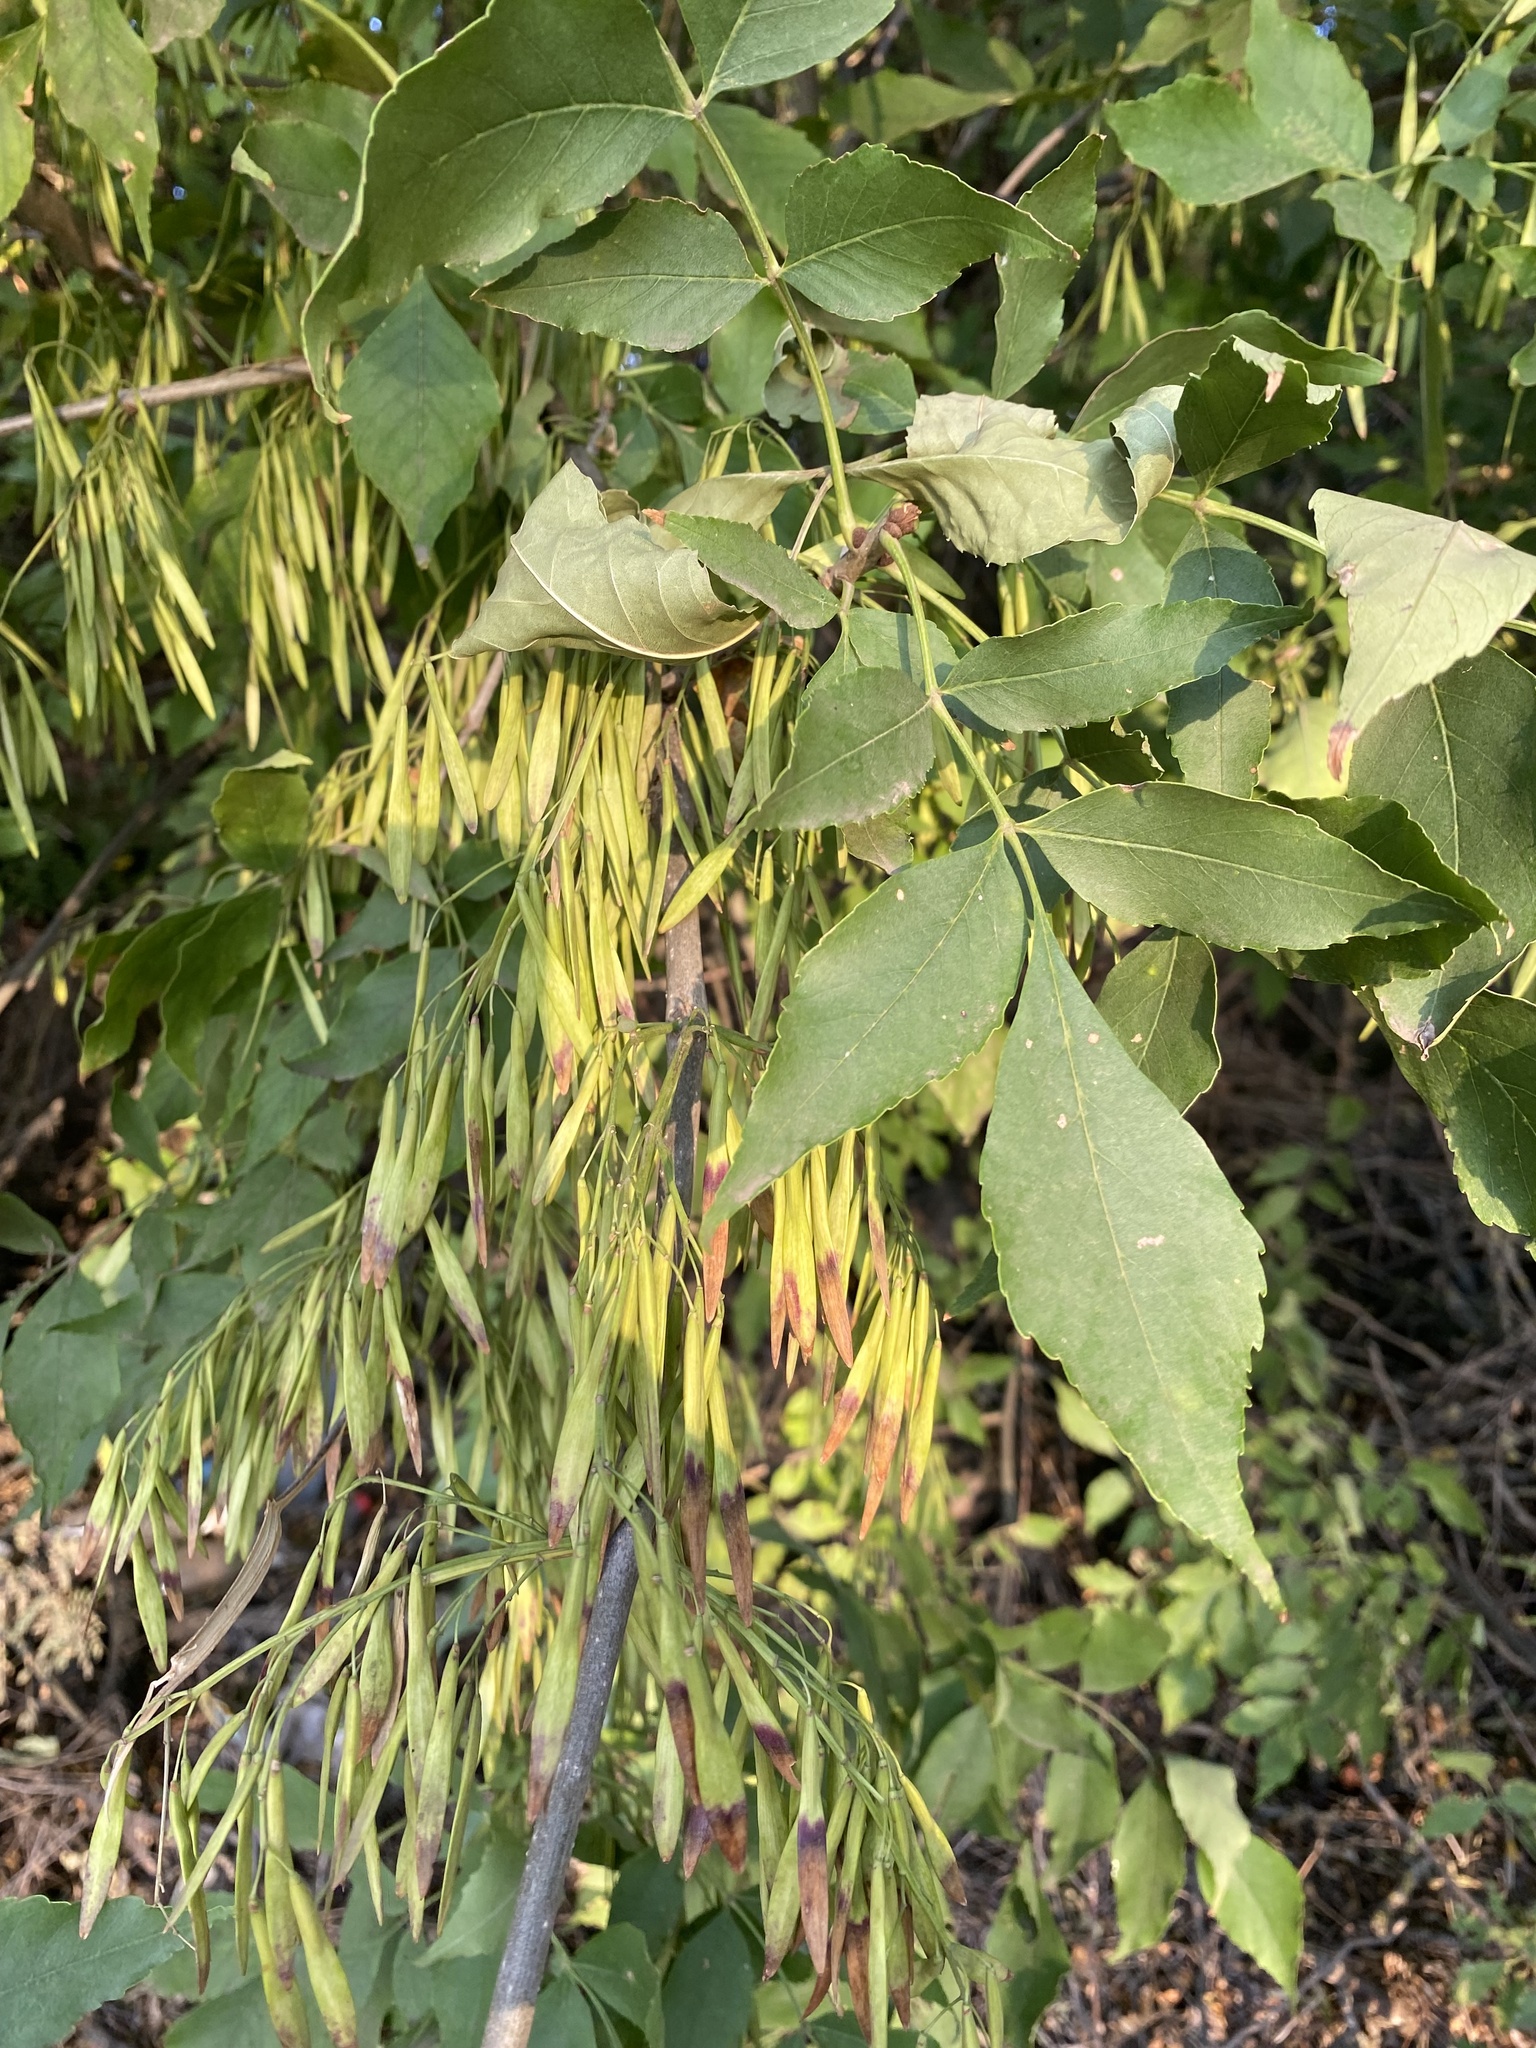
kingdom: Plantae
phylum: Tracheophyta
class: Magnoliopsida
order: Lamiales
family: Oleaceae
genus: Fraxinus
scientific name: Fraxinus pennsylvanica
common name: Green ash
